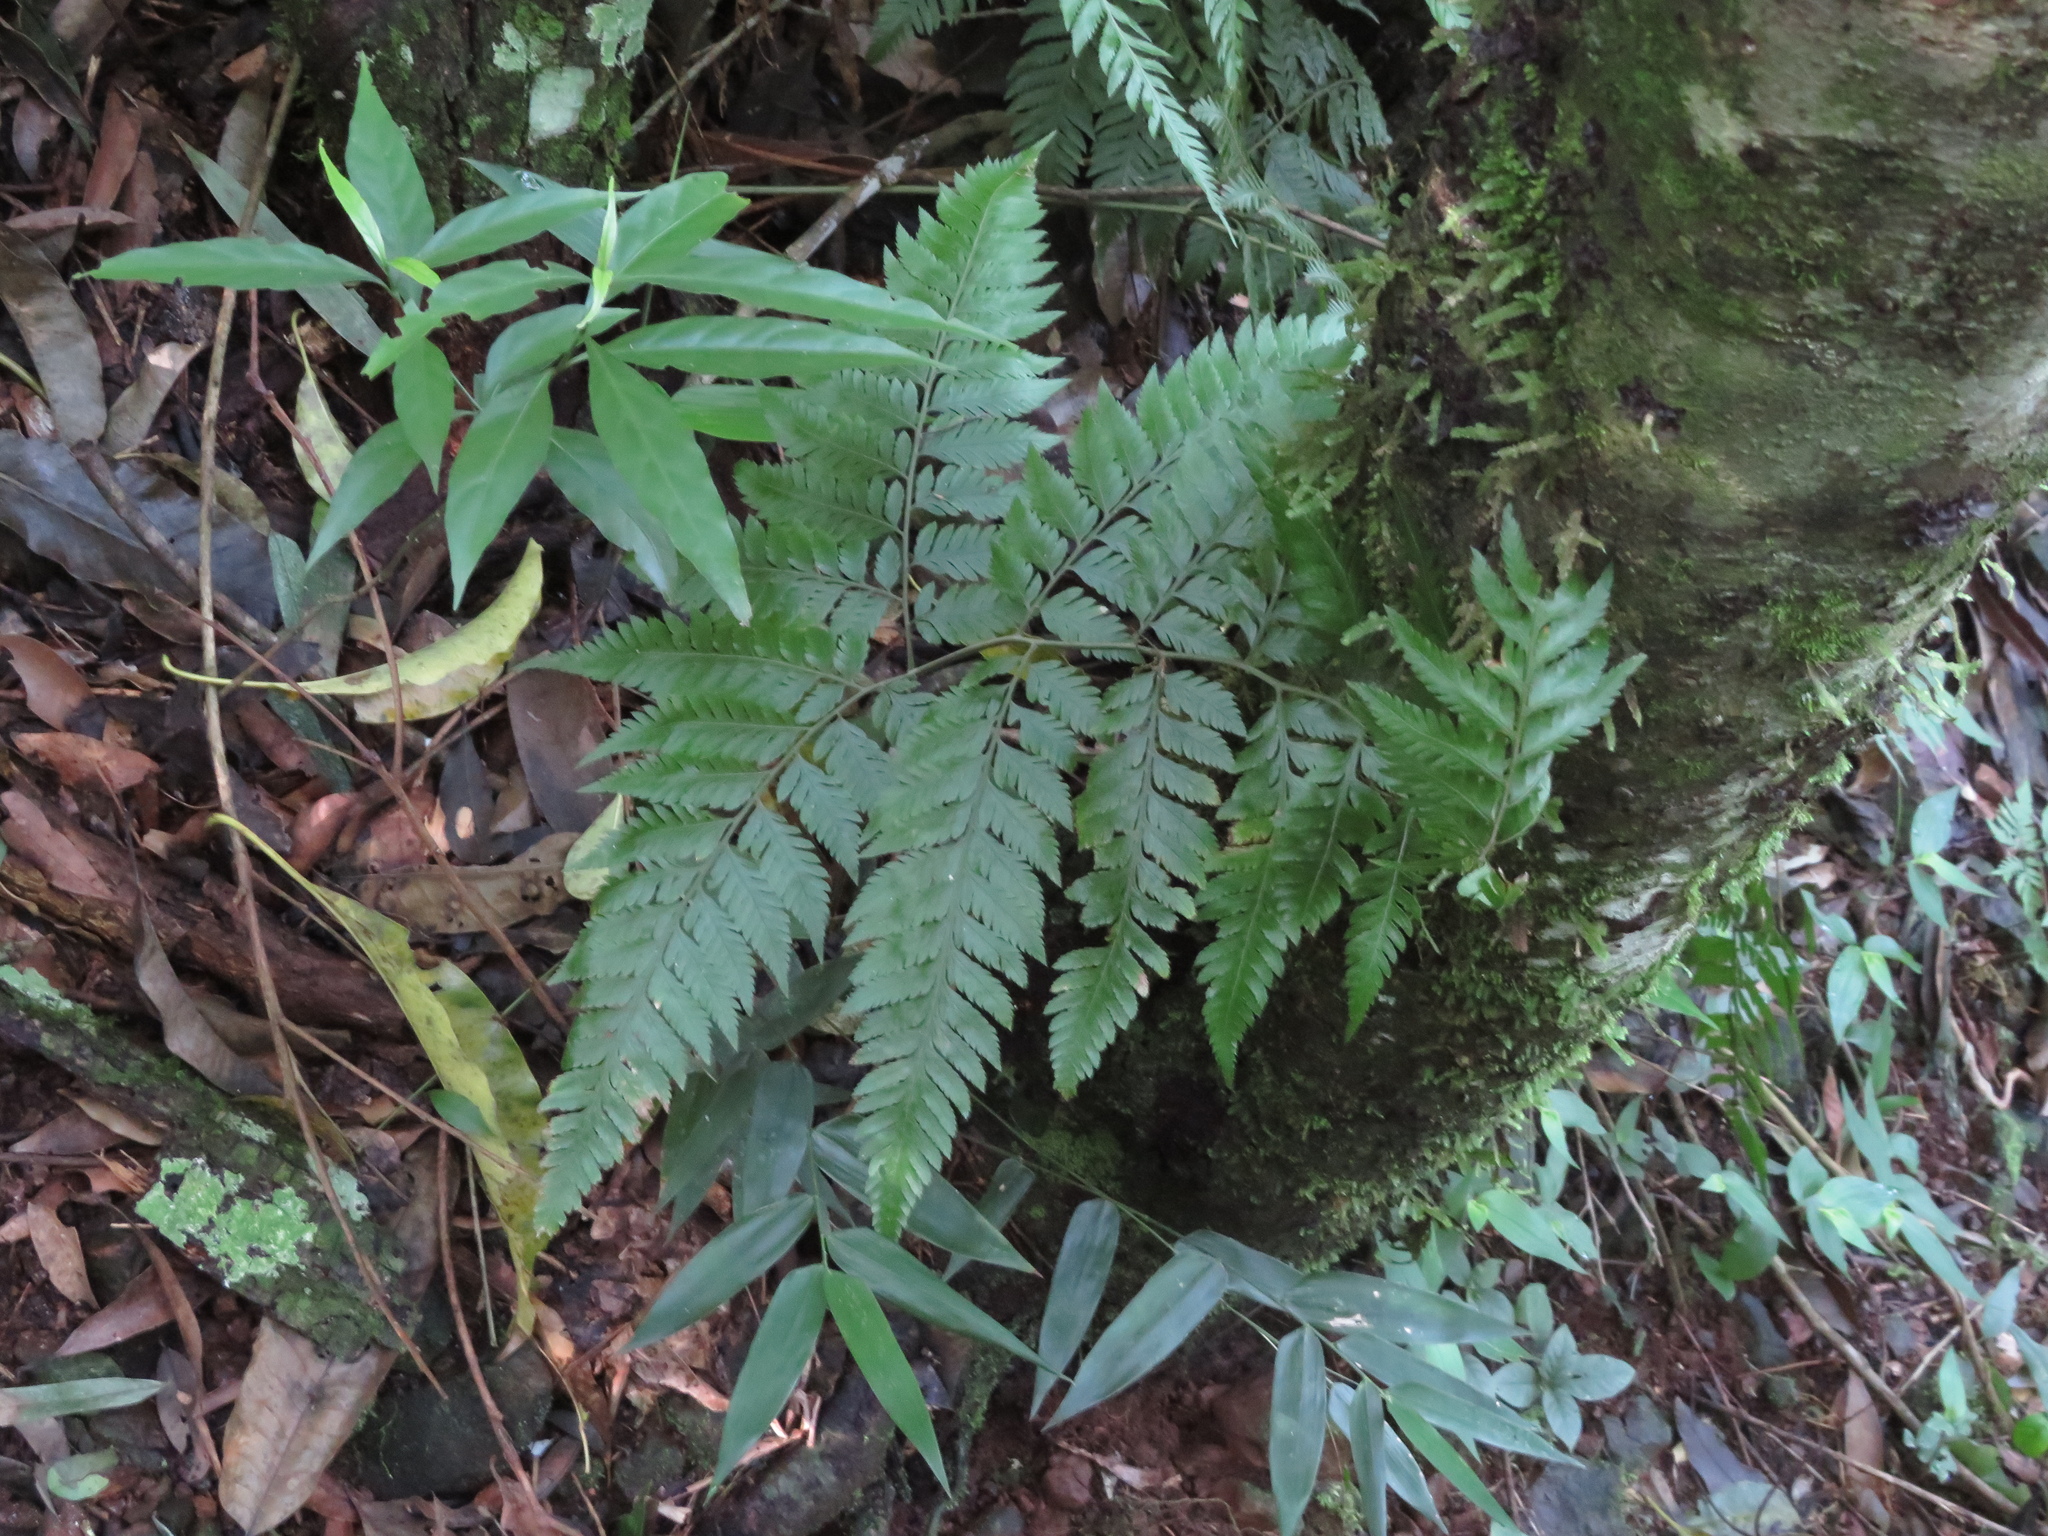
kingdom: Plantae
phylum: Tracheophyta
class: Polypodiopsida
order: Polypodiales
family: Dryopteridaceae
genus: Parapolystichum
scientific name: Parapolystichum effusum
